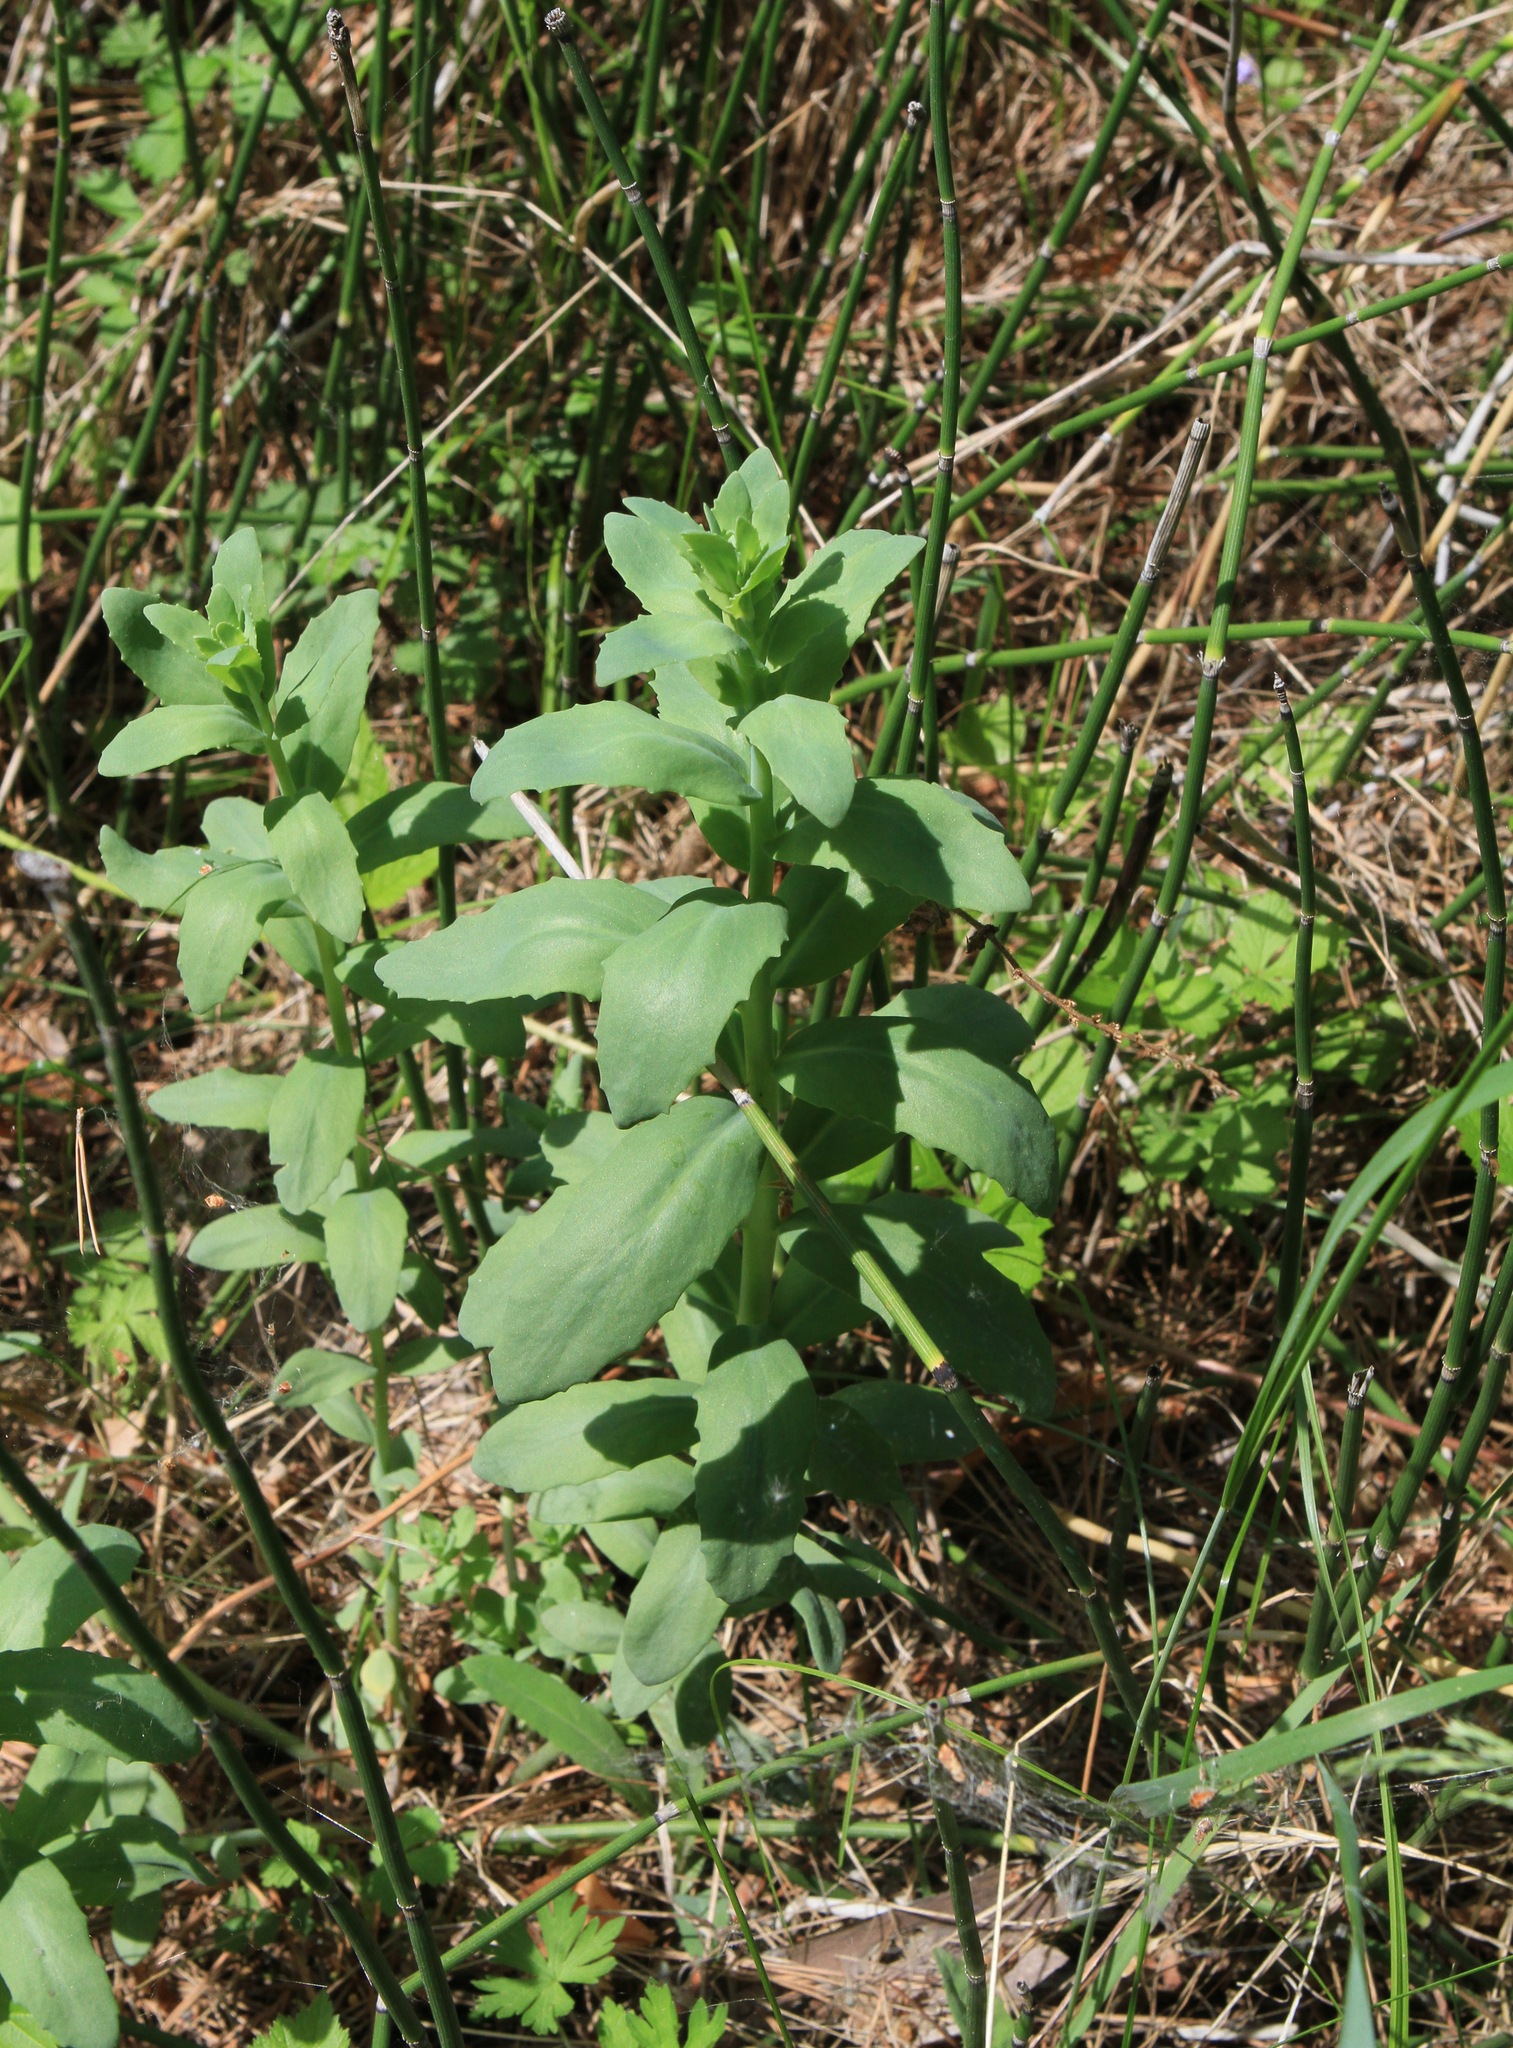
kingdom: Plantae
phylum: Tracheophyta
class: Magnoliopsida
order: Saxifragales
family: Crassulaceae
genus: Hylotelephium
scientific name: Hylotelephium telephium
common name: Live-forever
